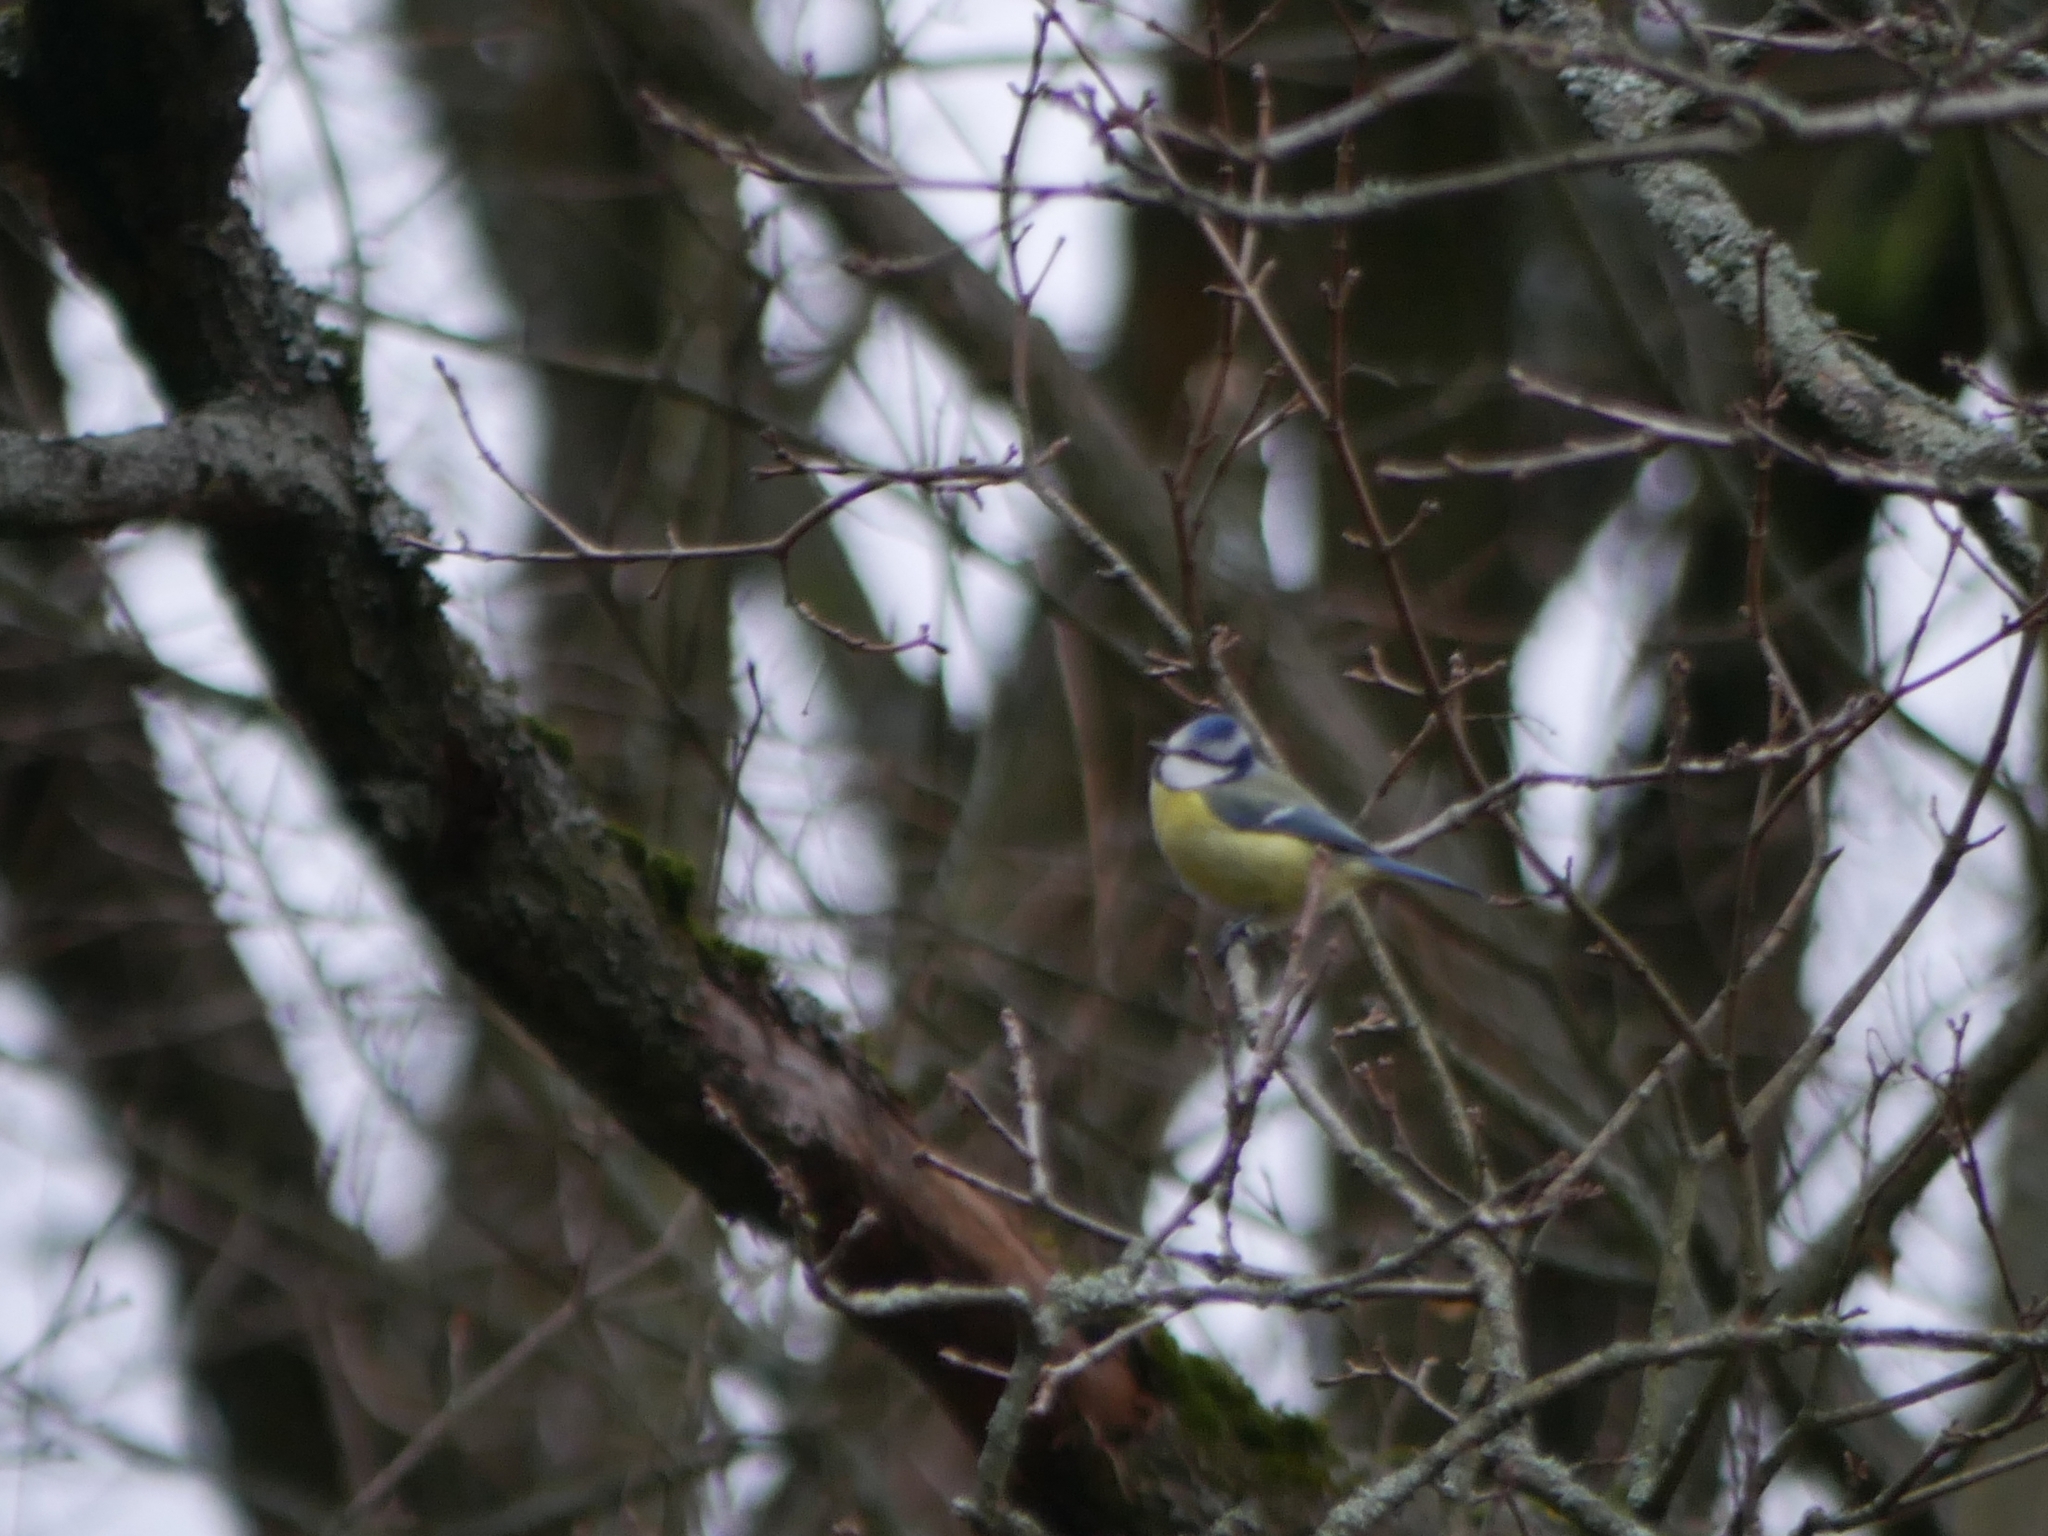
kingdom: Animalia
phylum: Chordata
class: Aves
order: Passeriformes
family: Paridae
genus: Cyanistes
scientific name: Cyanistes caeruleus
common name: Eurasian blue tit
